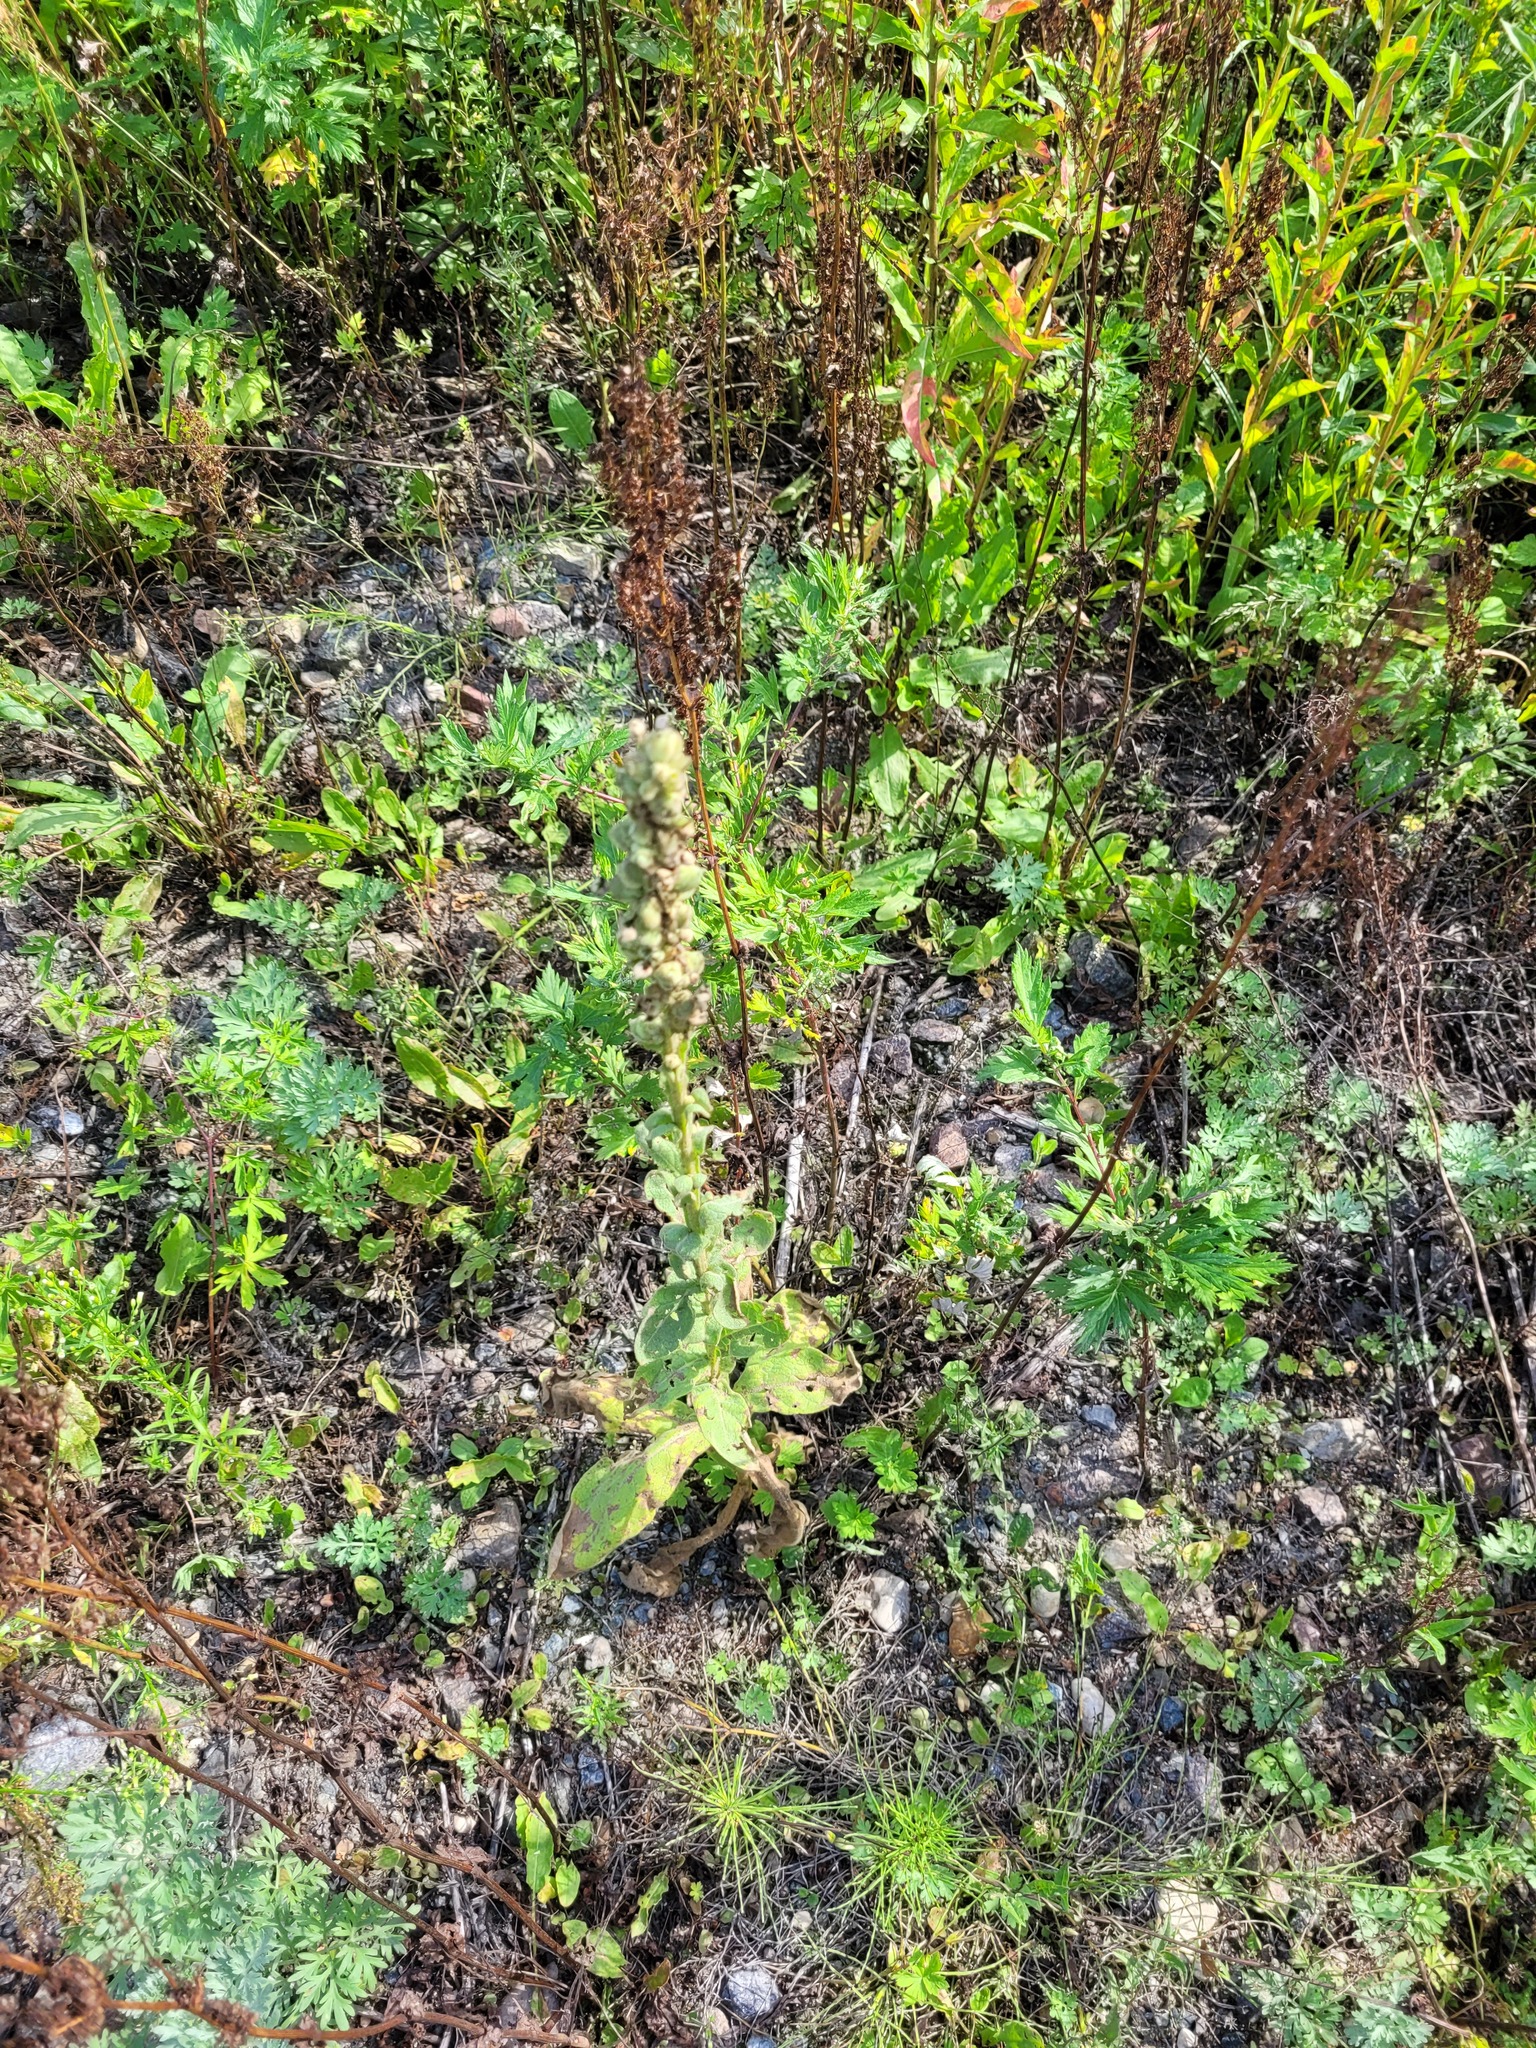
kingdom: Plantae
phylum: Tracheophyta
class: Magnoliopsida
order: Lamiales
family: Scrophulariaceae
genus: Verbascum
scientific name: Verbascum thapsus
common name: Common mullein
